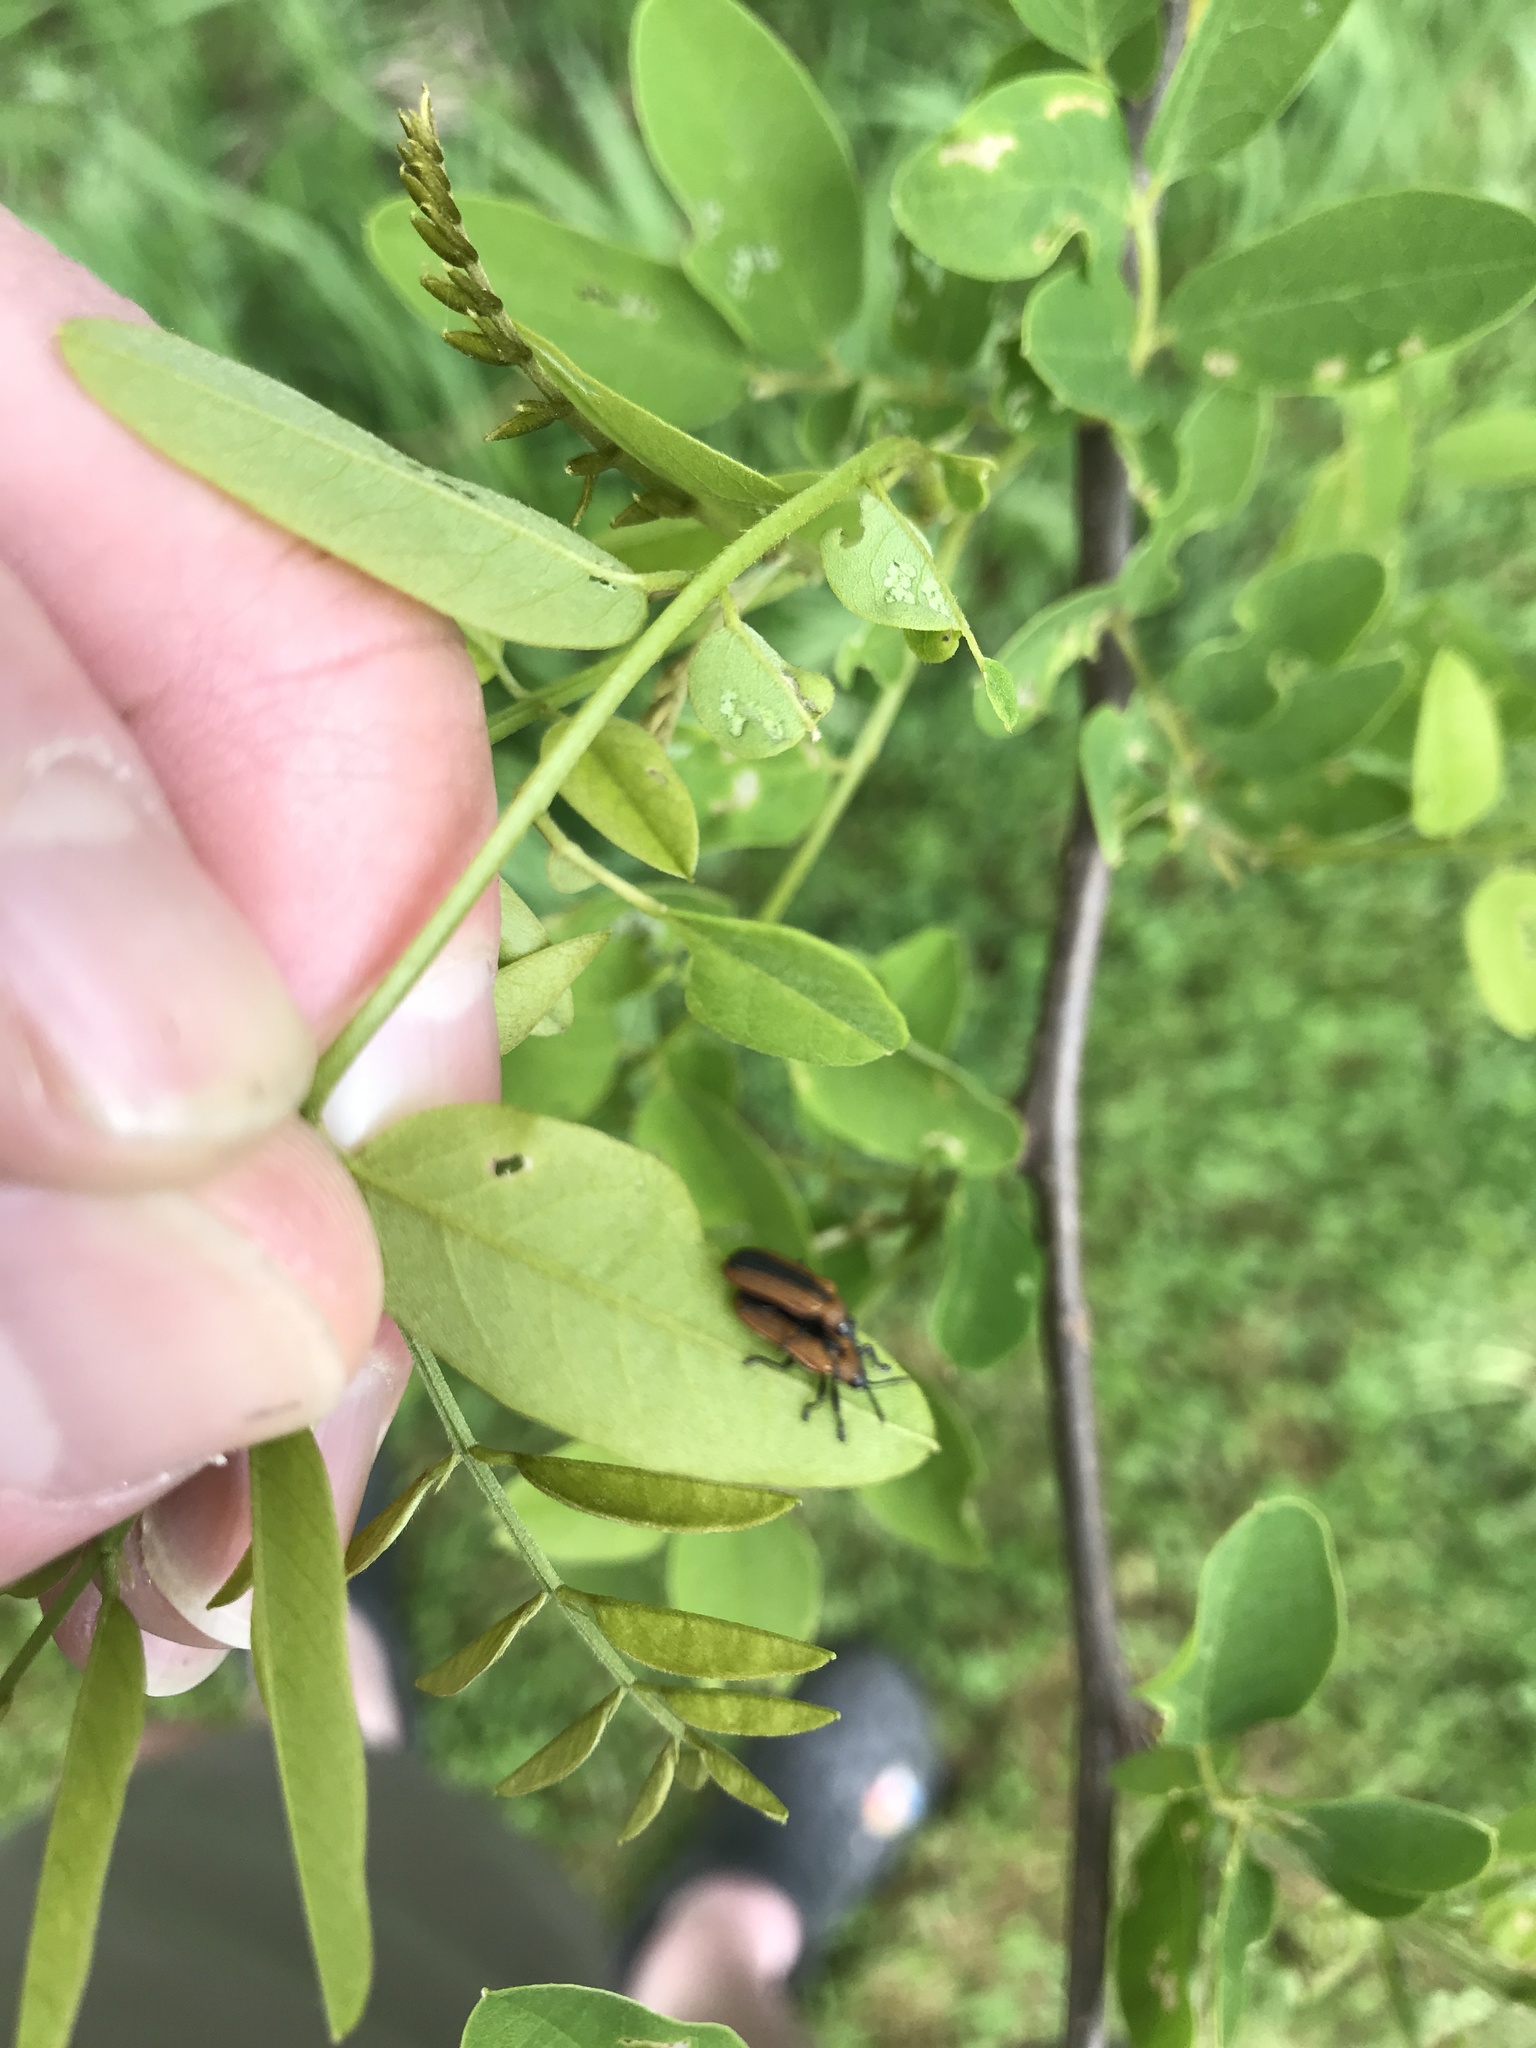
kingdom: Animalia
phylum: Arthropoda
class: Insecta
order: Coleoptera
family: Chrysomelidae
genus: Odontota
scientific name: Odontota dorsalis
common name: Locust leaf-miner beetle
